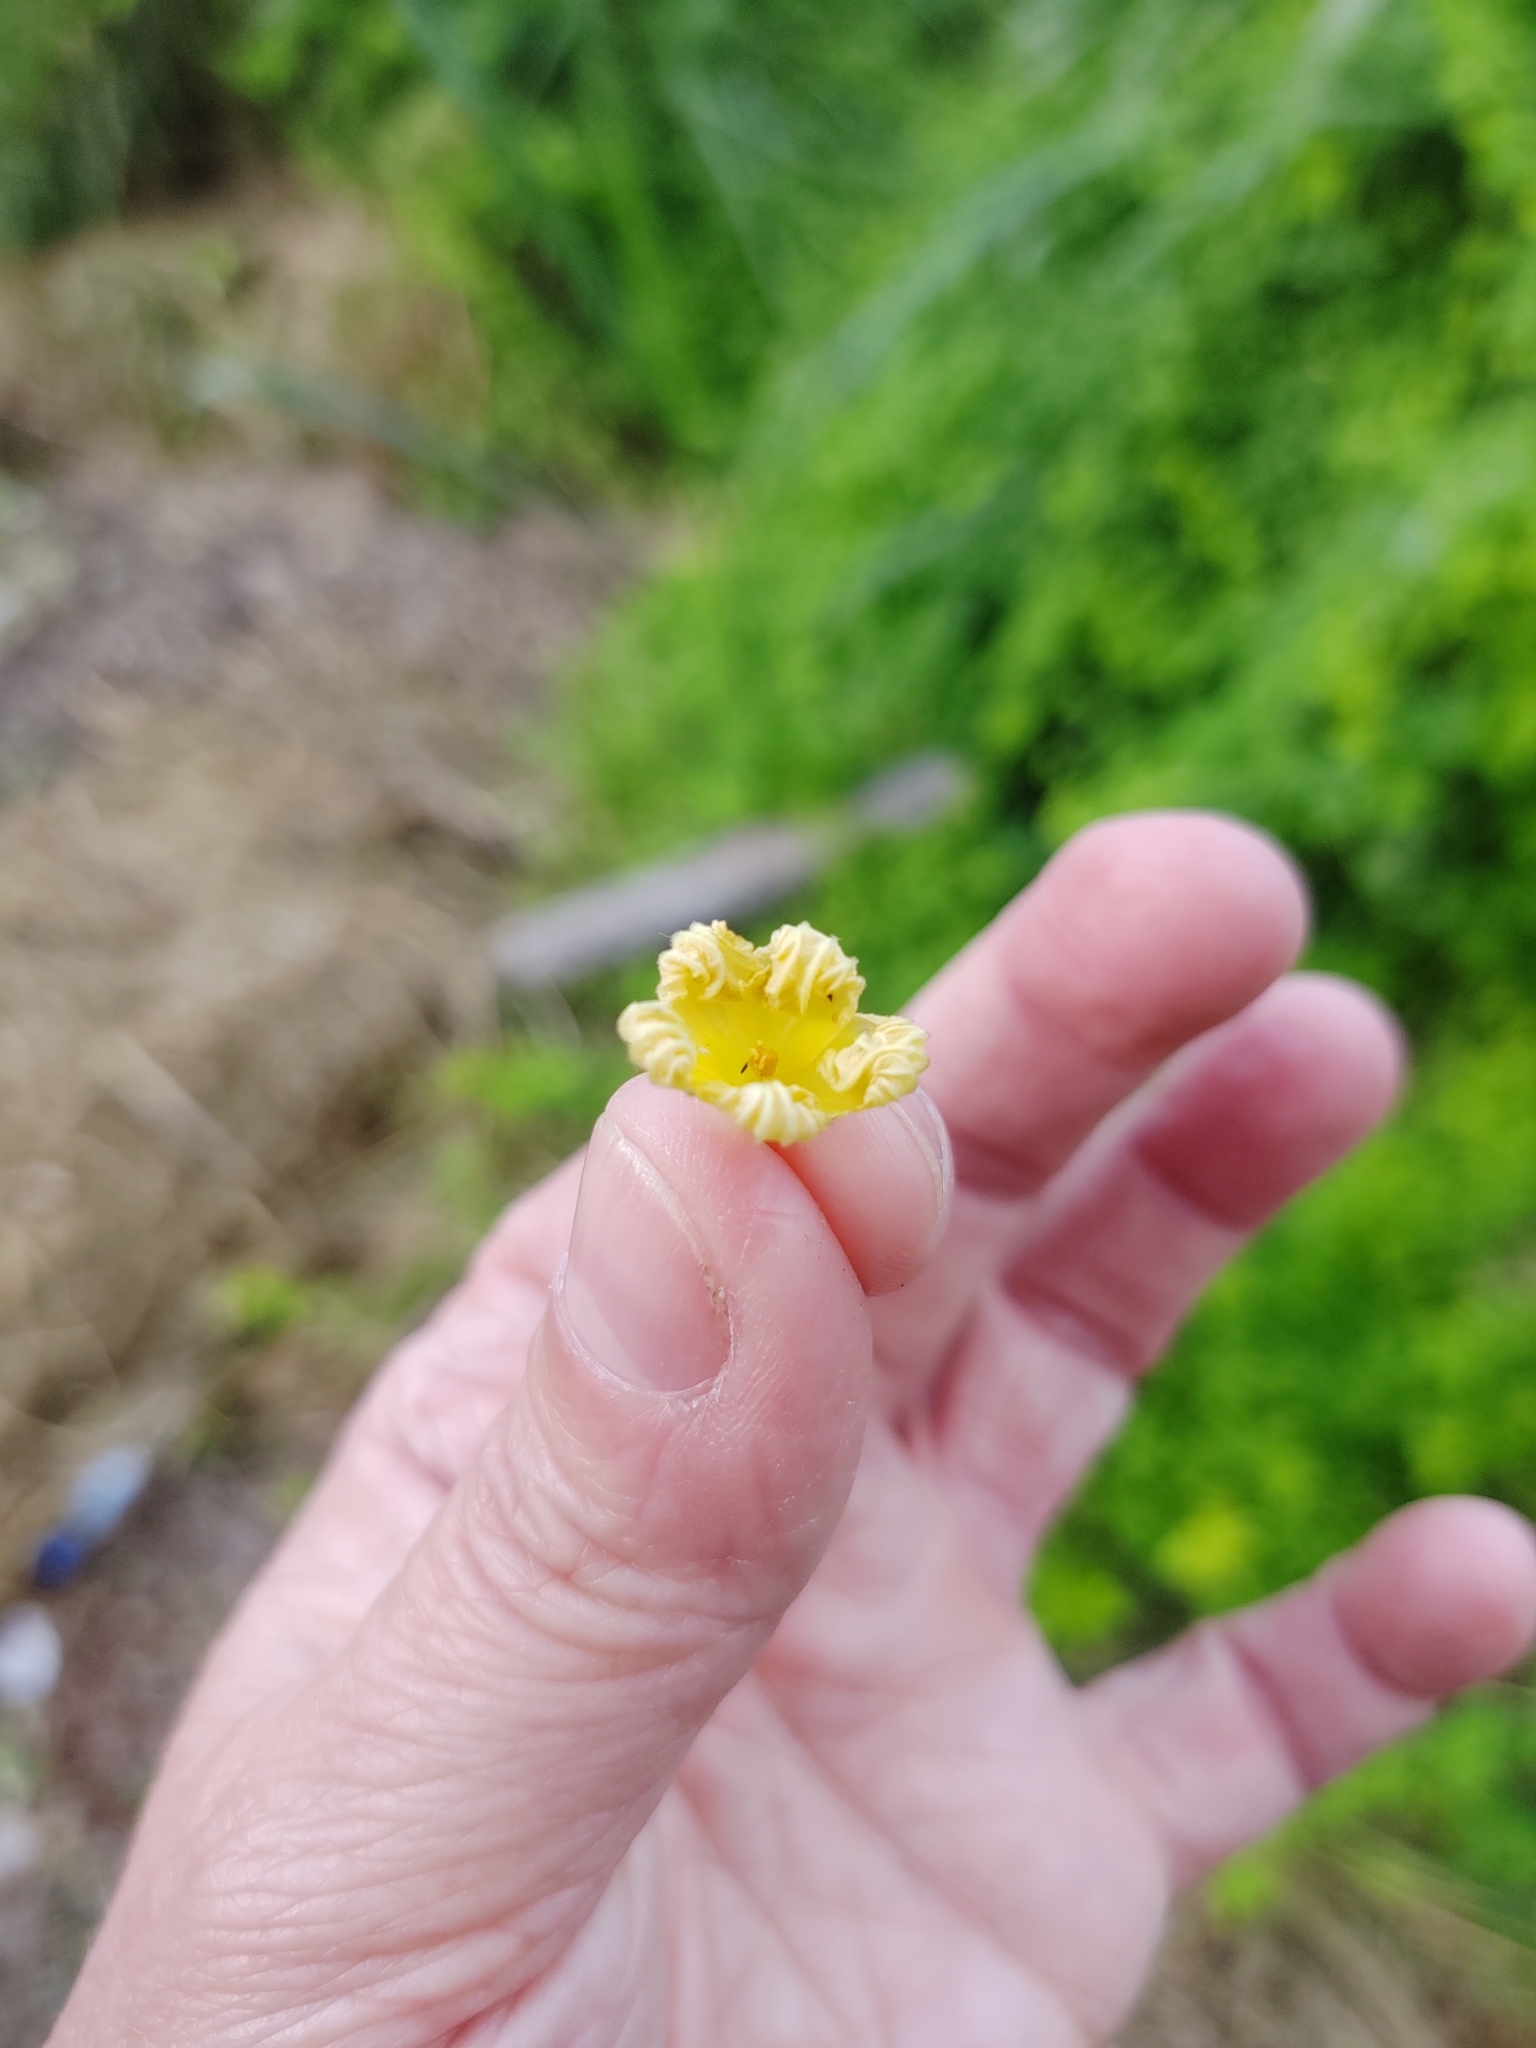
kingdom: Plantae
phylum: Tracheophyta
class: Magnoliopsida
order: Cucurbitales
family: Cucurbitaceae
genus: Momordica
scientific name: Momordica charantia
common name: Balsampear
